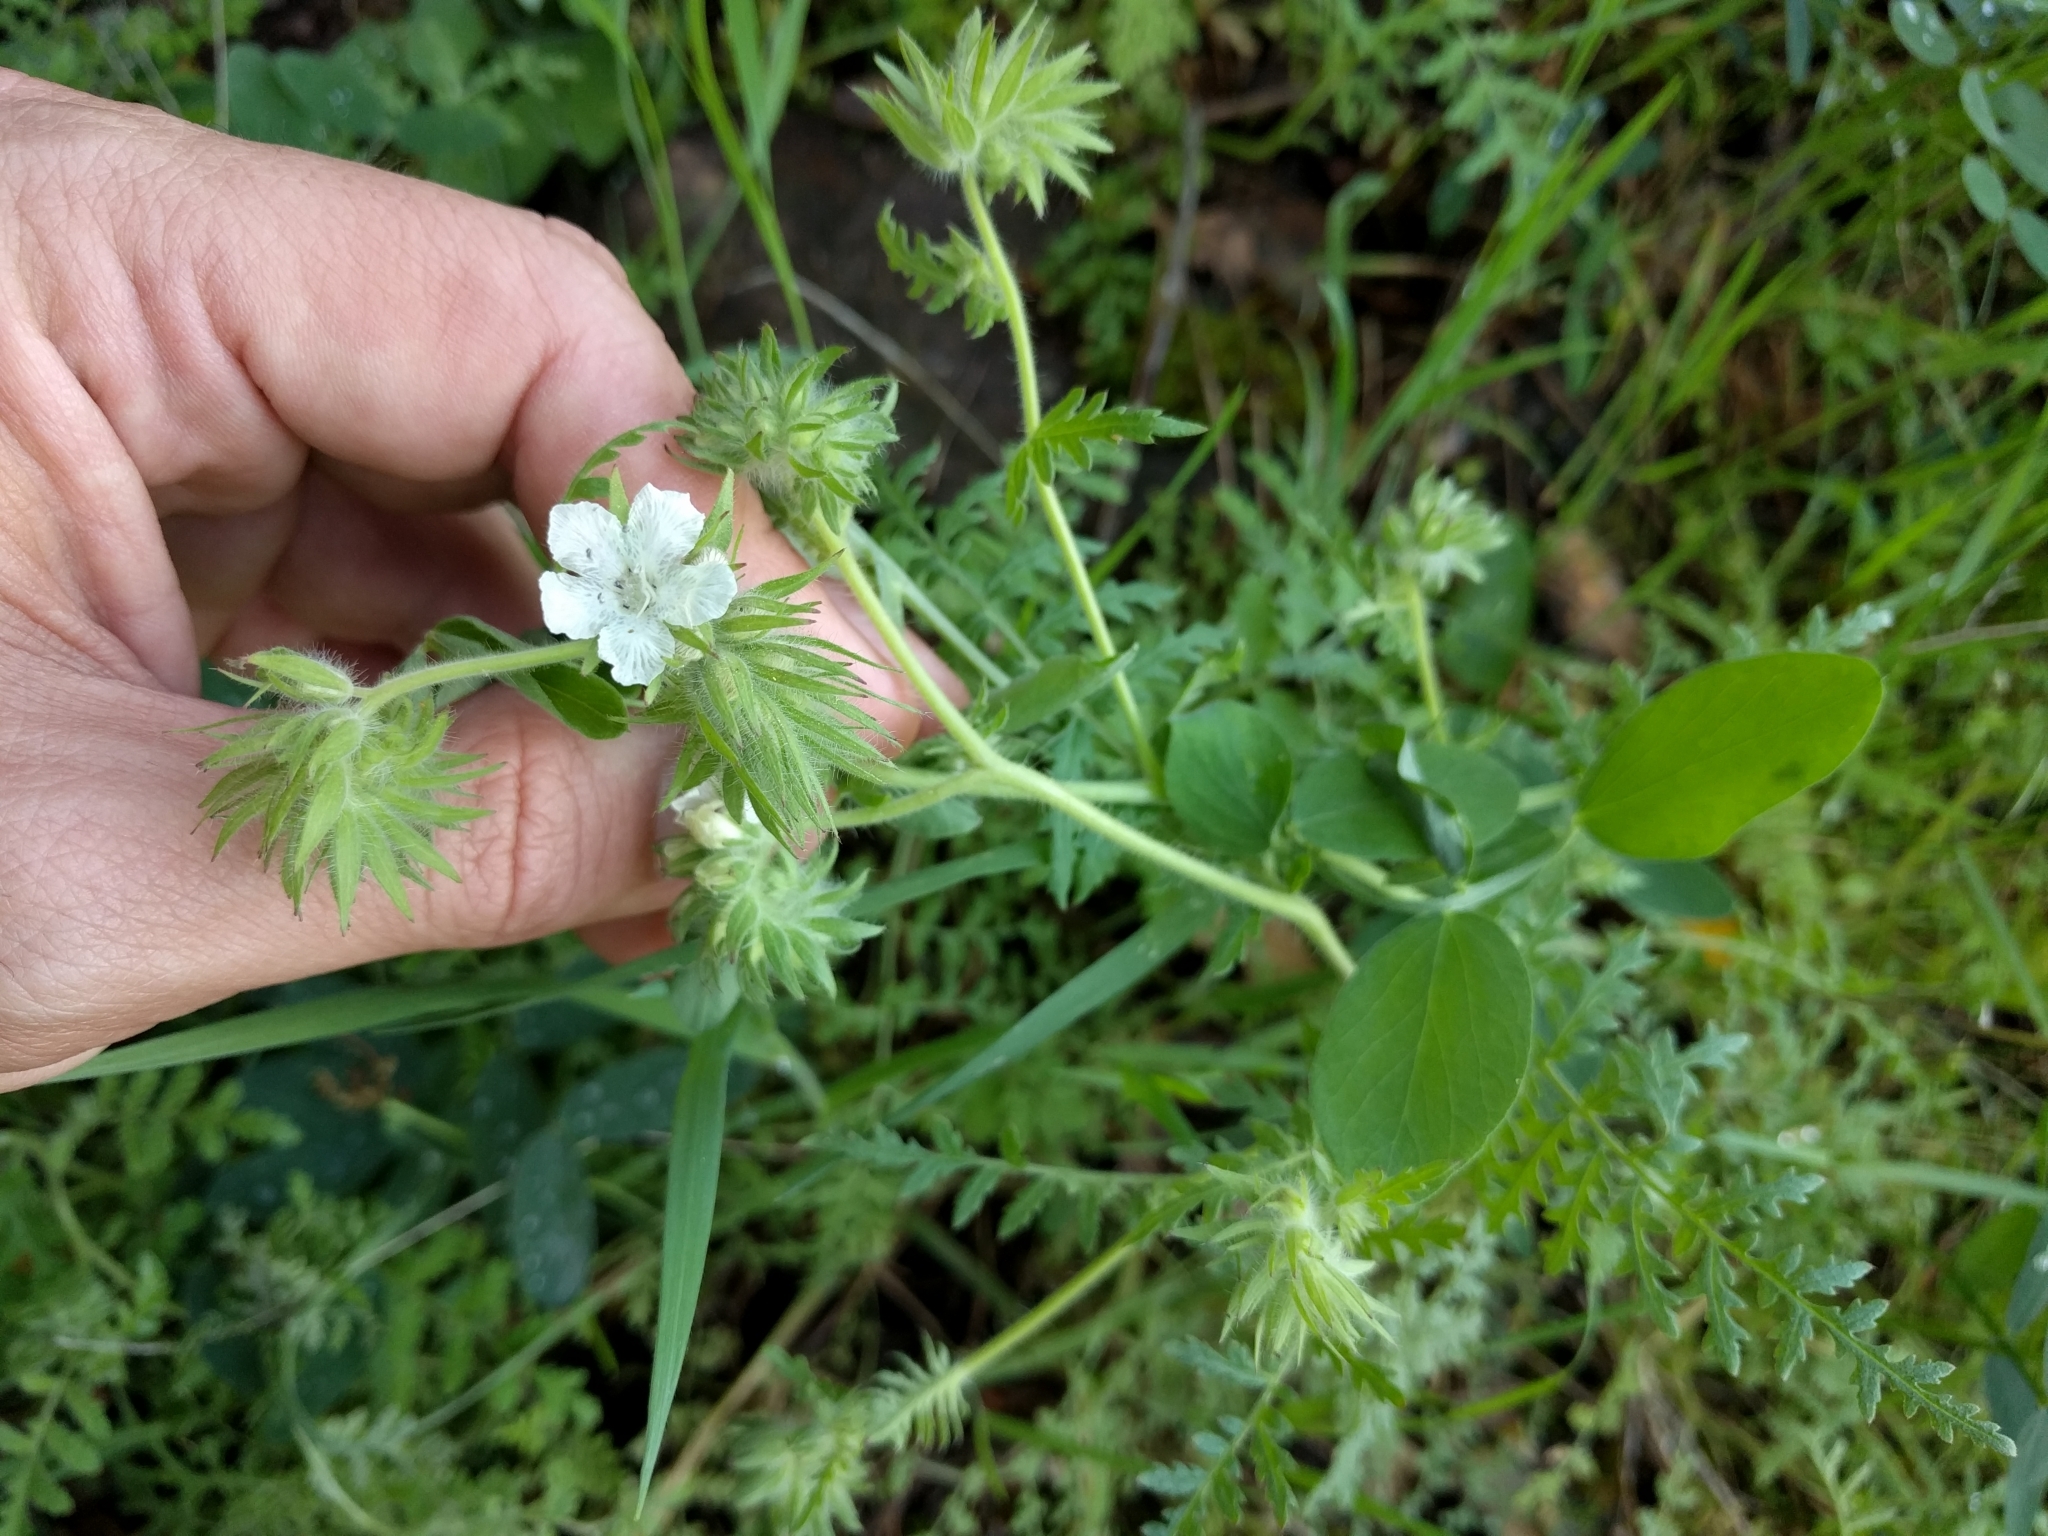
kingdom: Plantae
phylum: Tracheophyta
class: Magnoliopsida
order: Boraginales
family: Hydrophyllaceae
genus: Phacelia
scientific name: Phacelia distans
